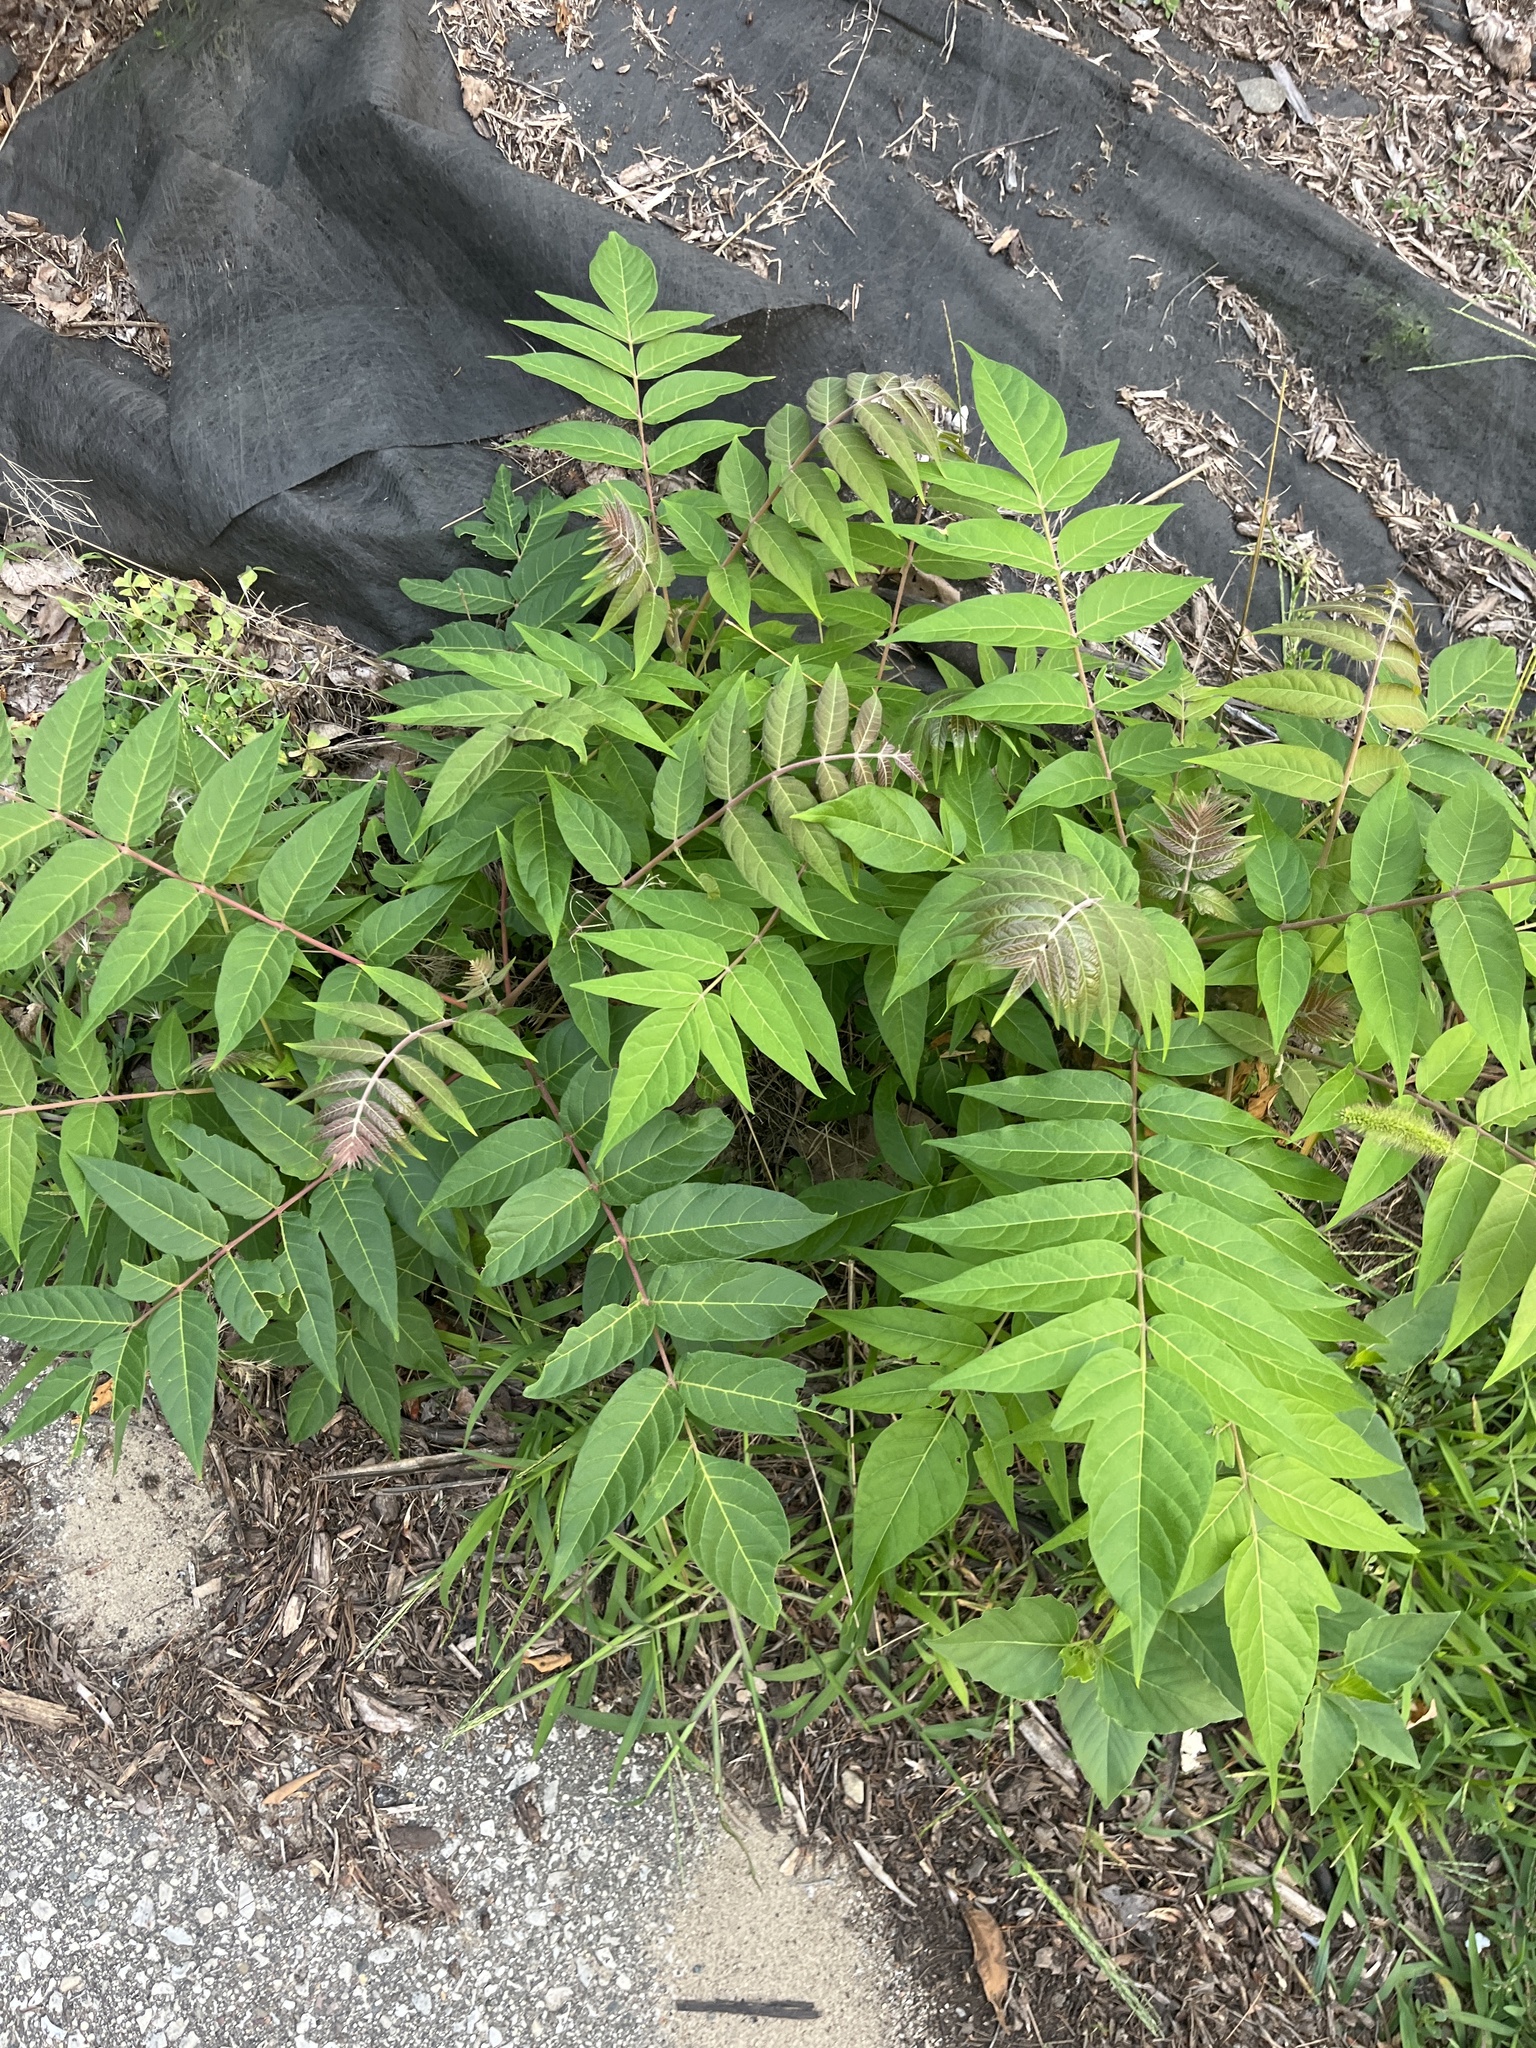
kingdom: Plantae
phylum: Tracheophyta
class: Magnoliopsida
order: Sapindales
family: Simaroubaceae
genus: Ailanthus
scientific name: Ailanthus altissima
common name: Tree-of-heaven
